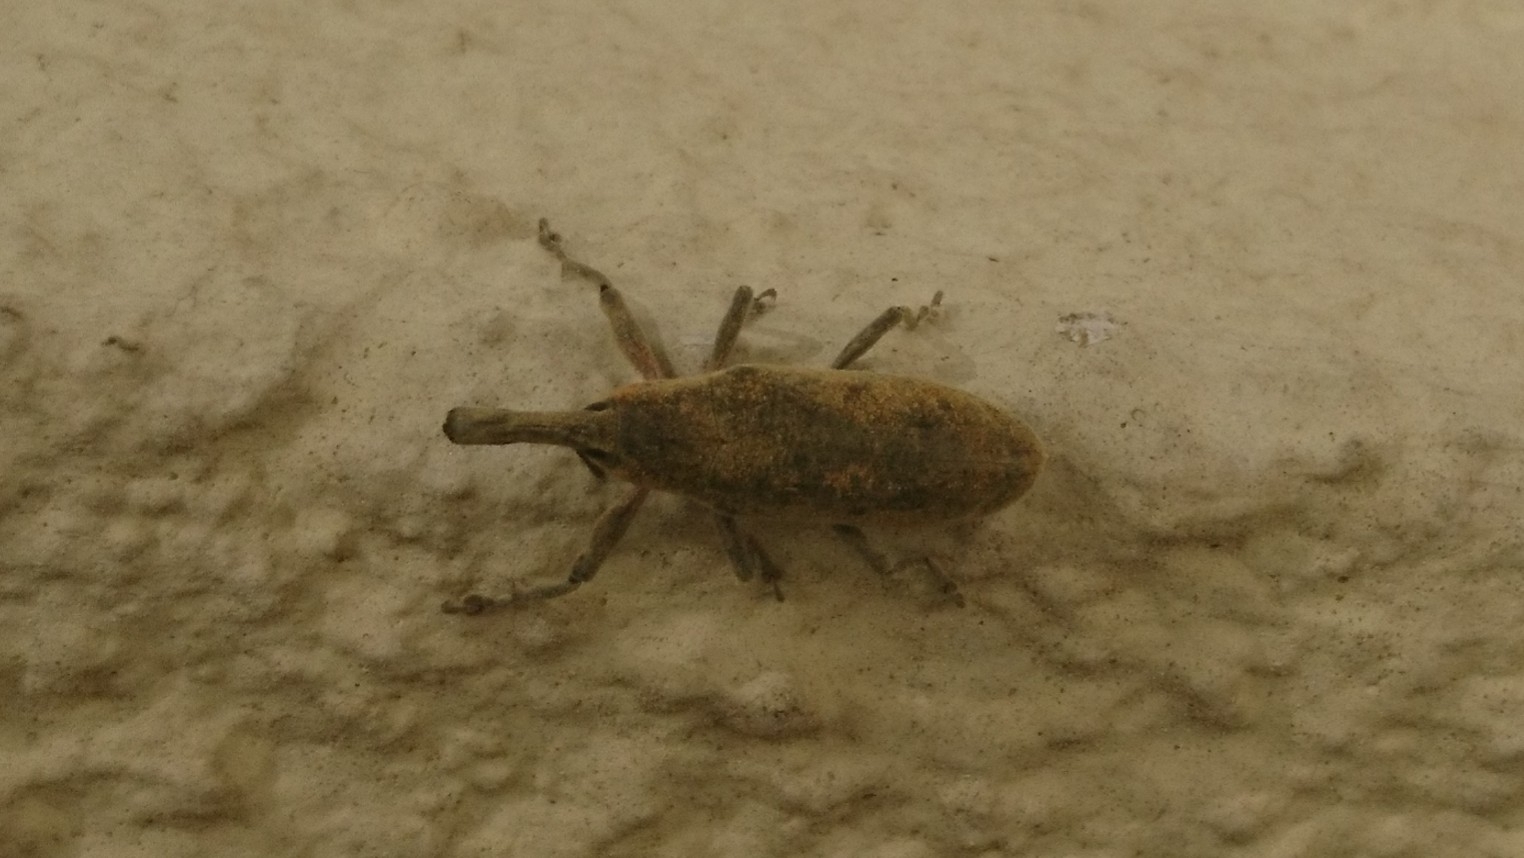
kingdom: Animalia
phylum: Arthropoda
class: Insecta
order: Coleoptera
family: Curculionidae
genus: Lixus
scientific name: Lixus pulverulentus
